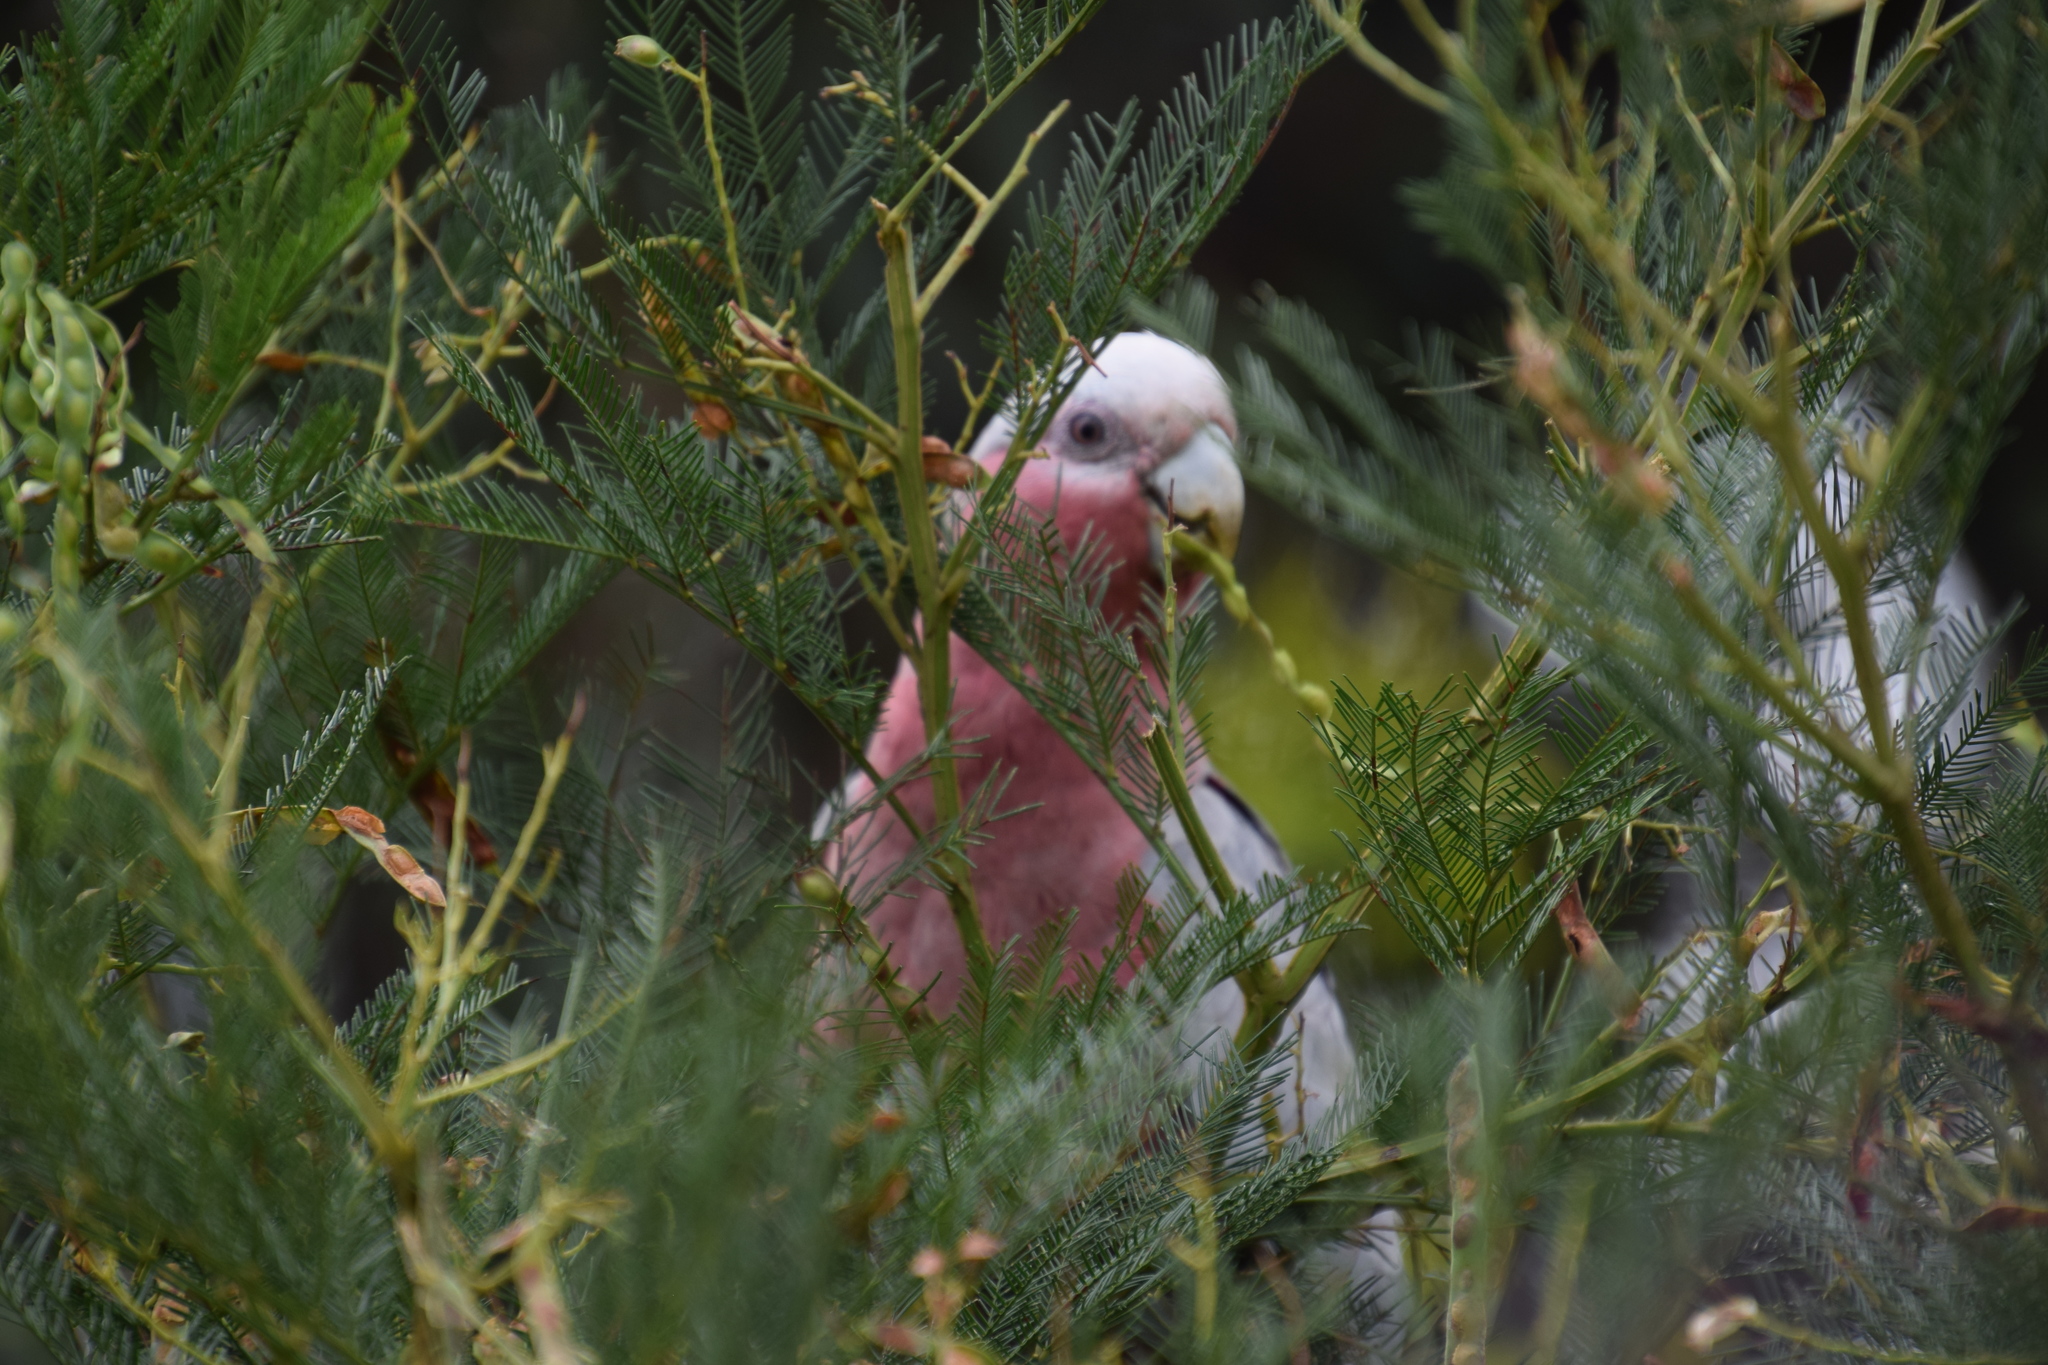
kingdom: Animalia
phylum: Chordata
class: Aves
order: Psittaciformes
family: Psittacidae
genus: Eolophus
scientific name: Eolophus roseicapilla
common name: Galah
